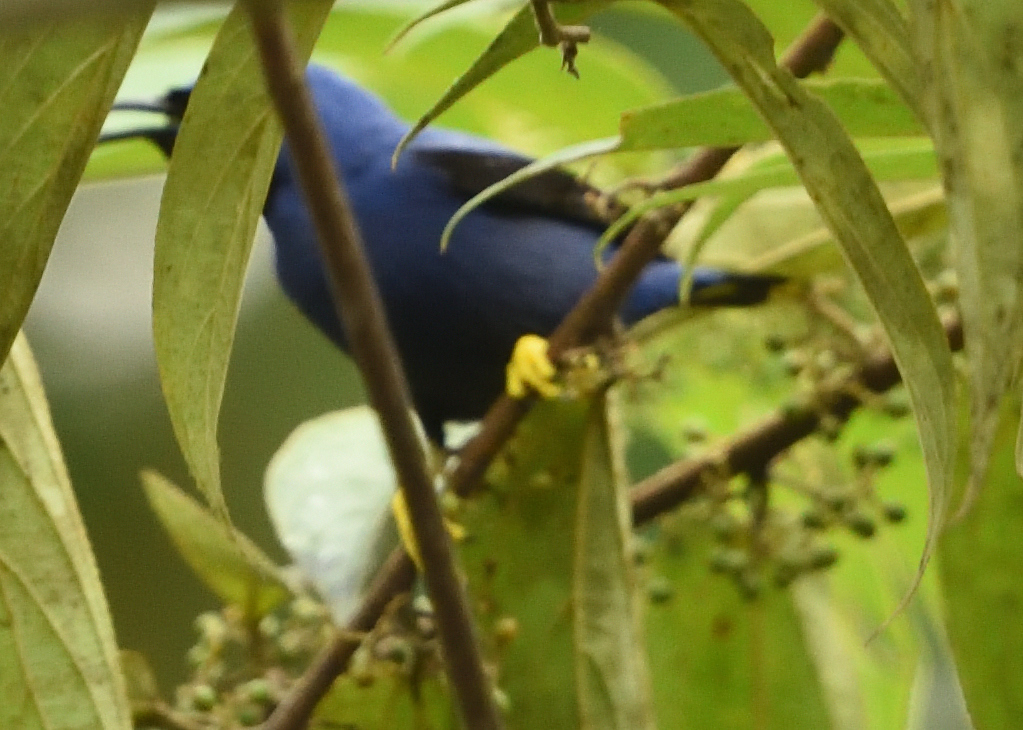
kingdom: Animalia
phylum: Chordata
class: Aves
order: Passeriformes
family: Thraupidae
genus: Cyanerpes
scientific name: Cyanerpes caeruleus
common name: Purple honeycreeper
